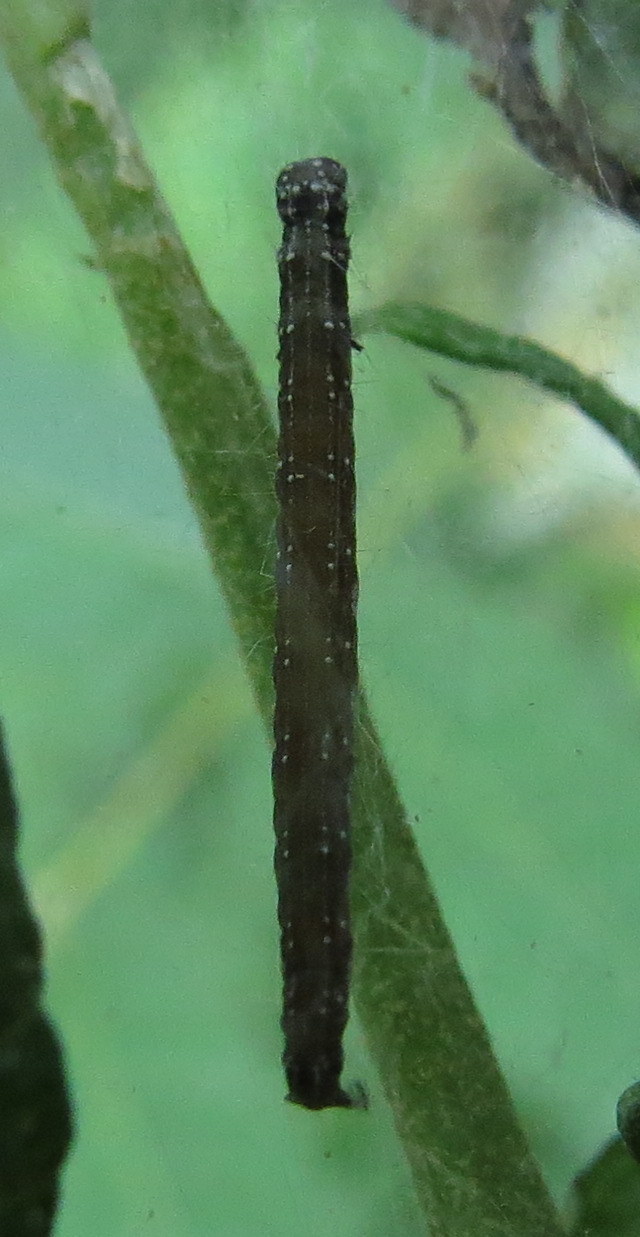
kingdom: Animalia
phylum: Arthropoda
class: Insecta
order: Lepidoptera
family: Attevidae
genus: Atteva
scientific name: Atteva punctella
